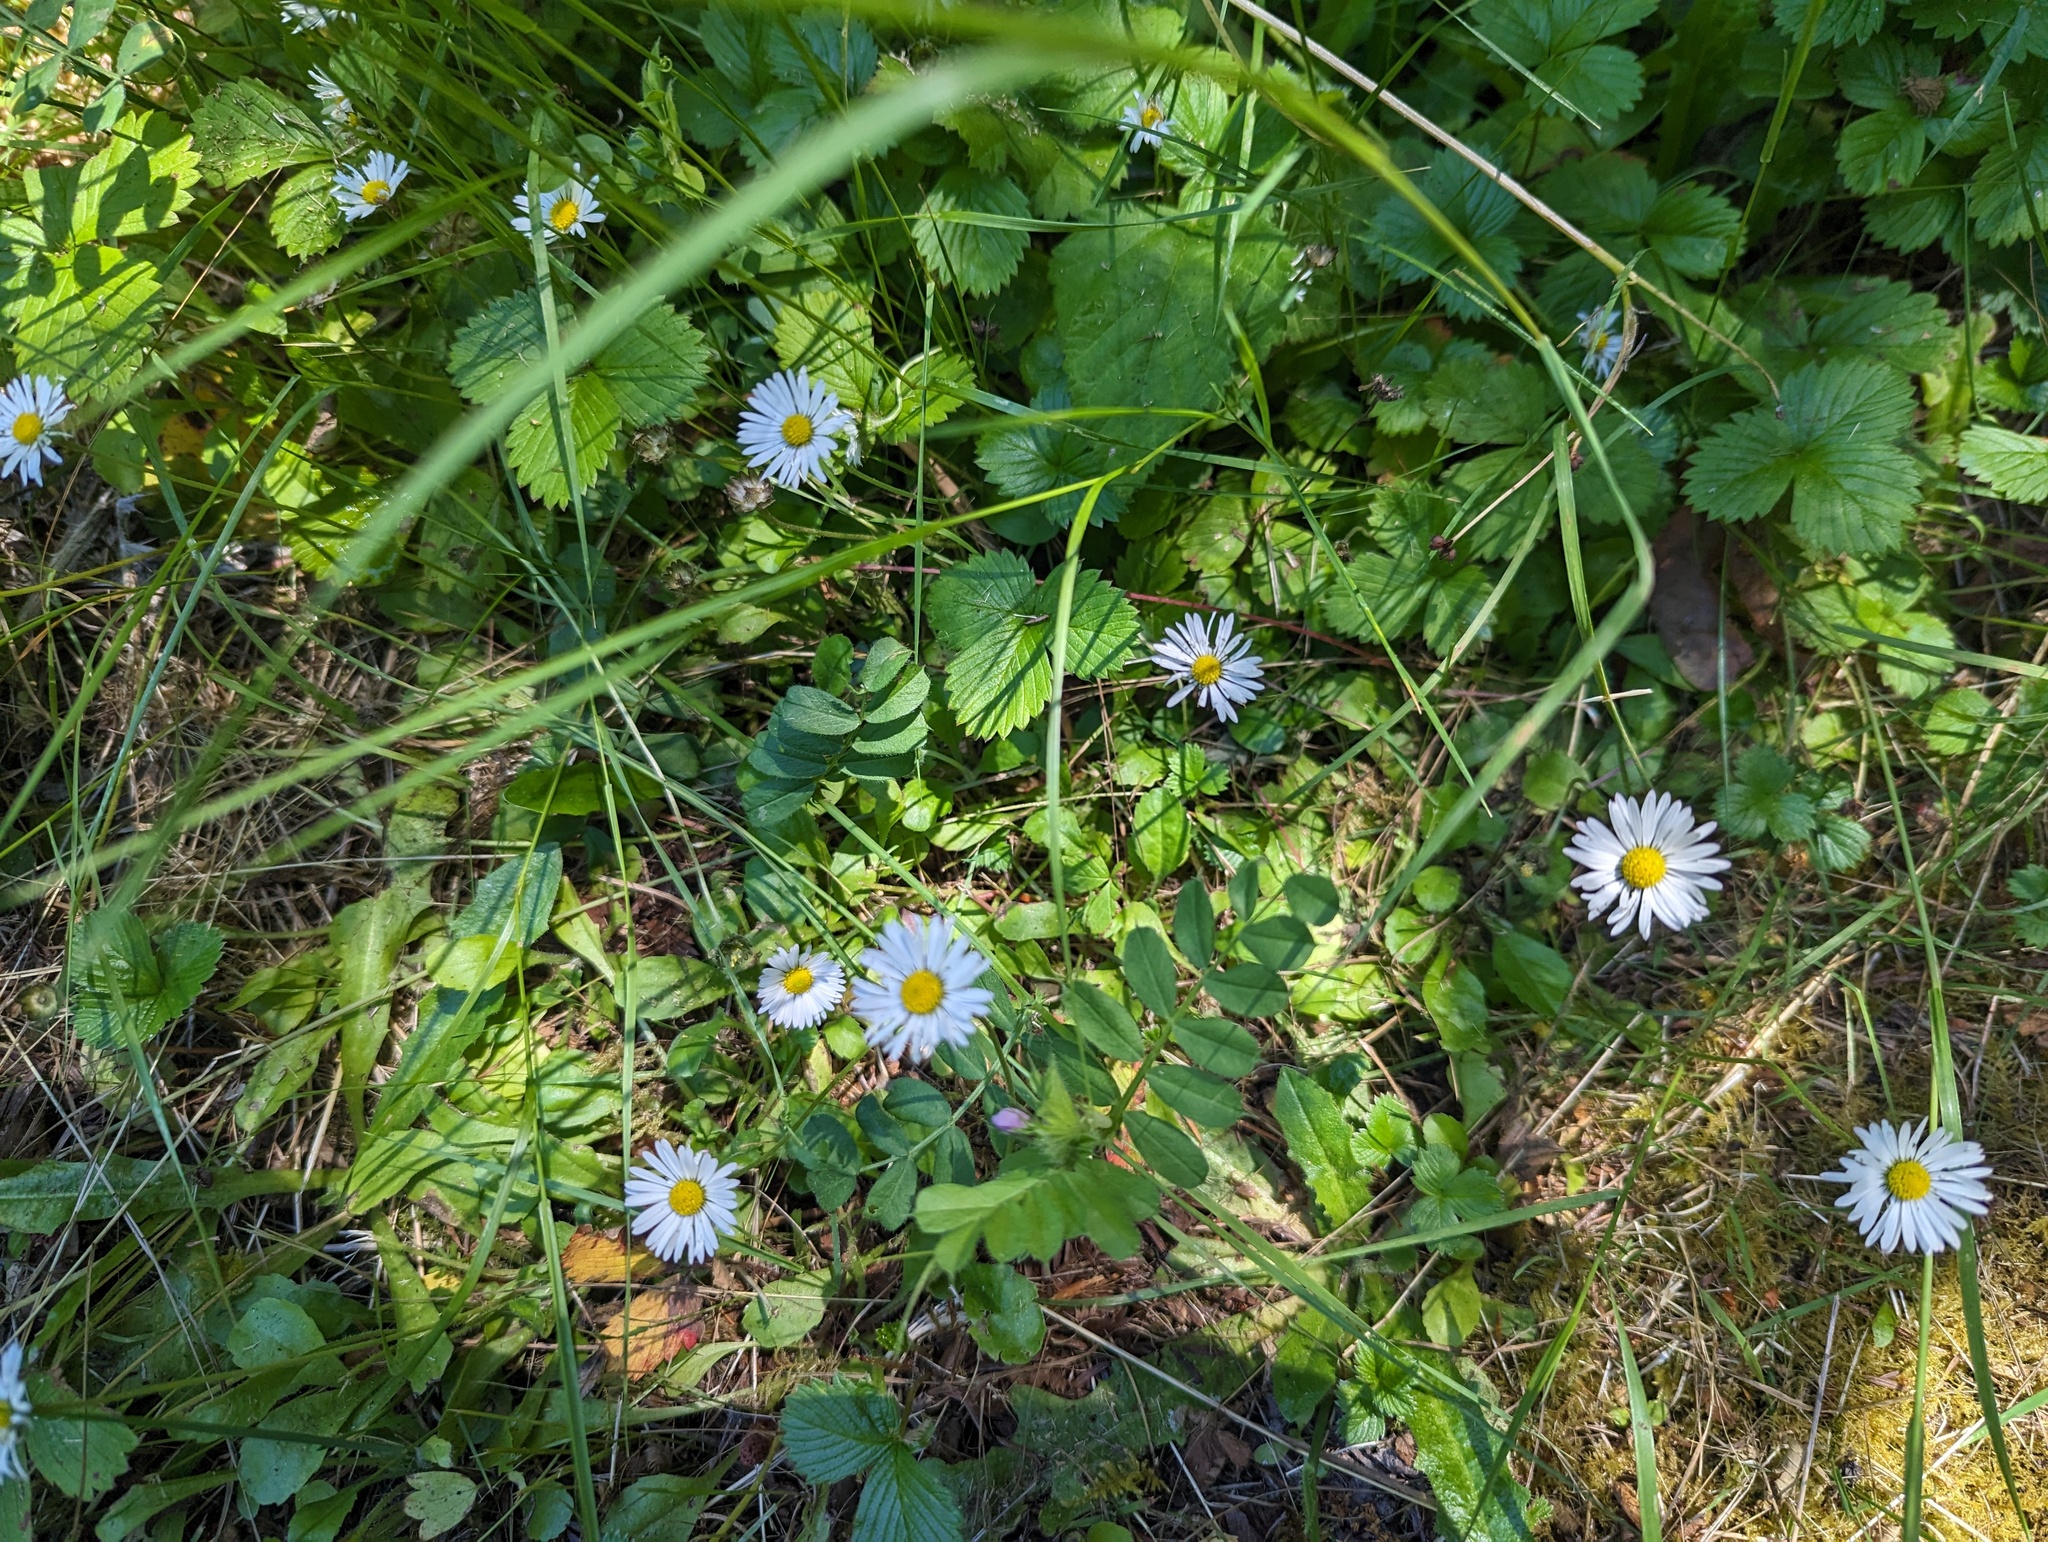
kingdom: Plantae
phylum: Tracheophyta
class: Magnoliopsida
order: Asterales
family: Asteraceae
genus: Bellis
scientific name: Bellis perennis
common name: Lawndaisy
